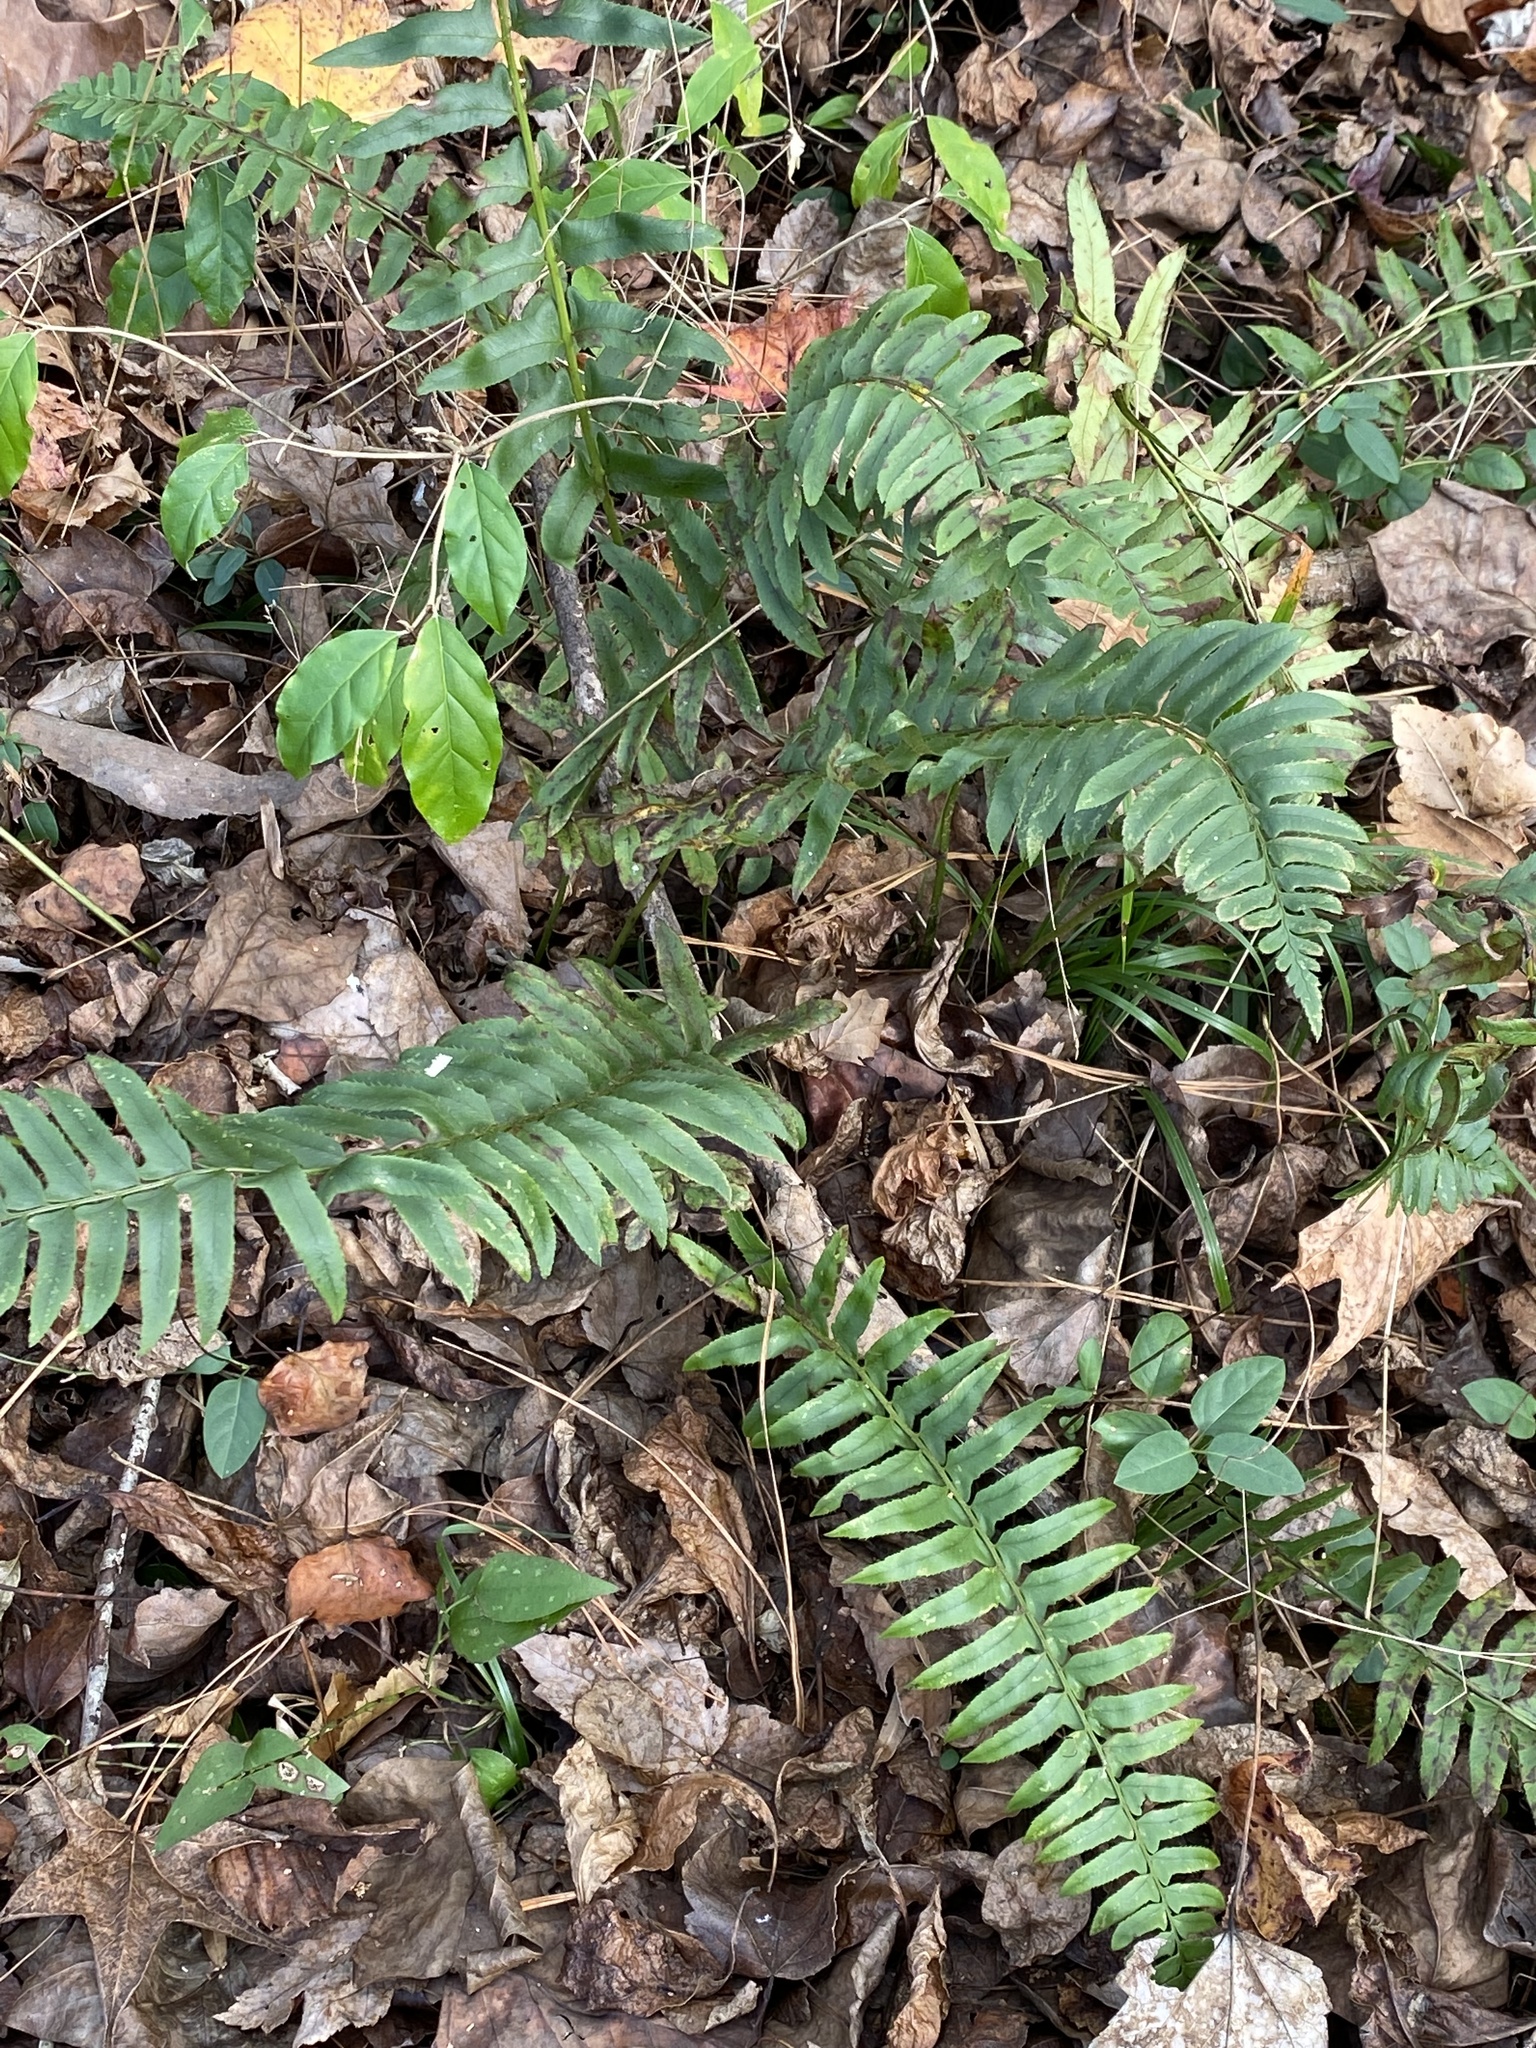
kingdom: Plantae
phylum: Tracheophyta
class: Polypodiopsida
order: Polypodiales
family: Dryopteridaceae
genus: Polystichum
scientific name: Polystichum acrostichoides
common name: Christmas fern
